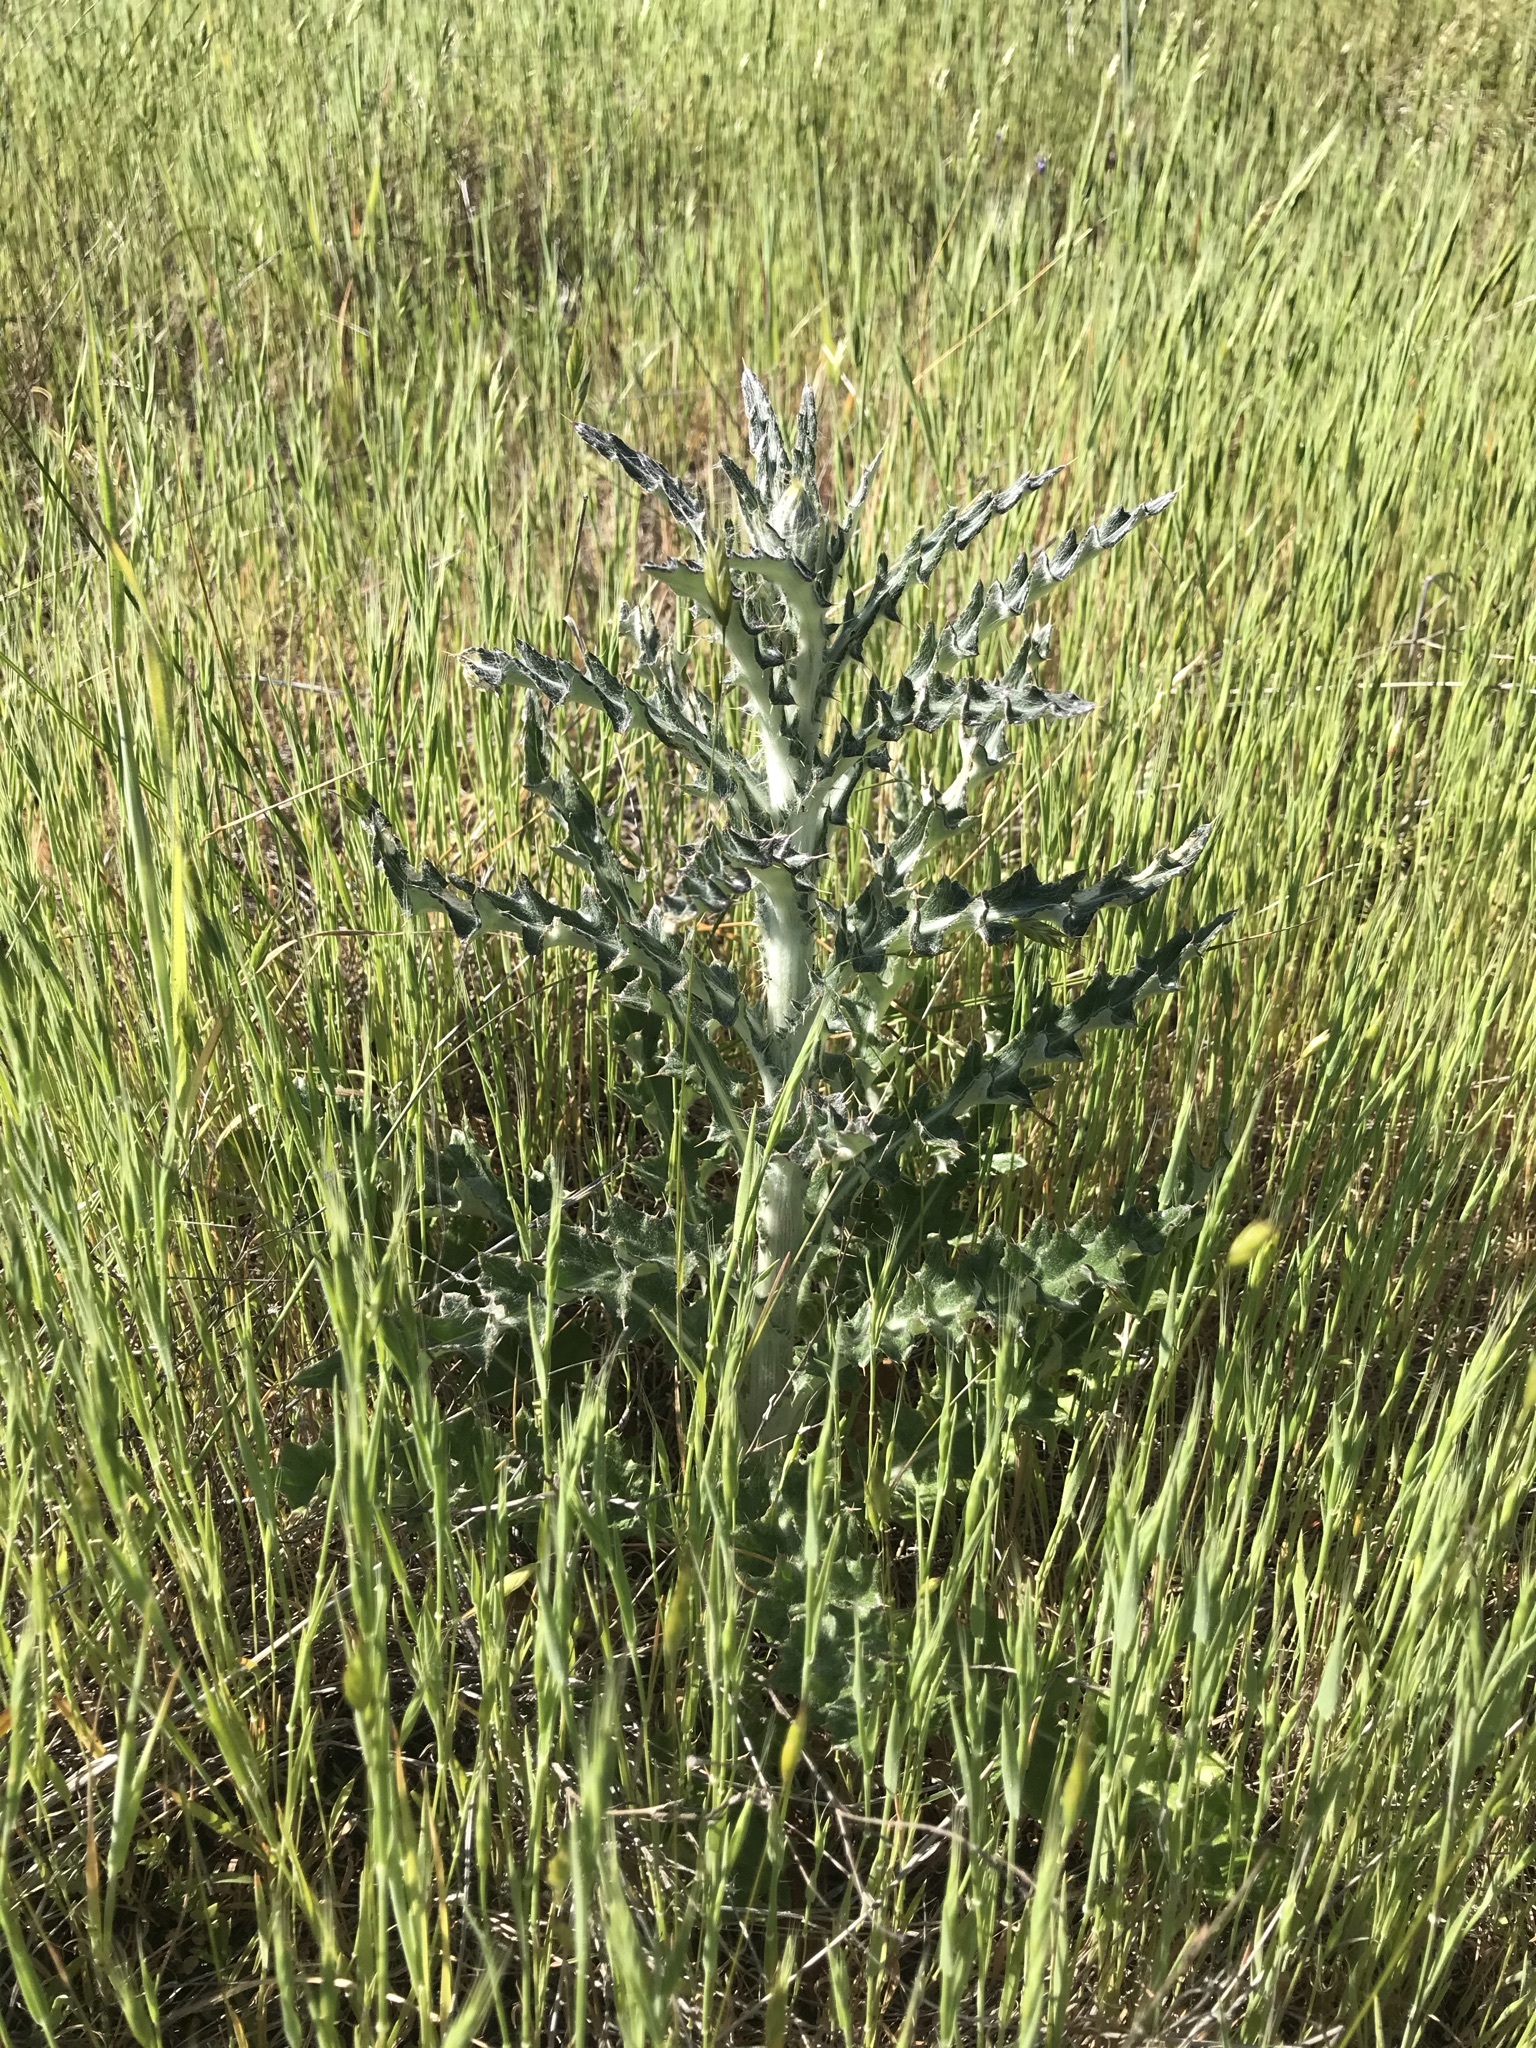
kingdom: Plantae
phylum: Tracheophyta
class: Magnoliopsida
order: Asterales
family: Asteraceae
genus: Cirsium
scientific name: Cirsium occidentale
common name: Western thistle
